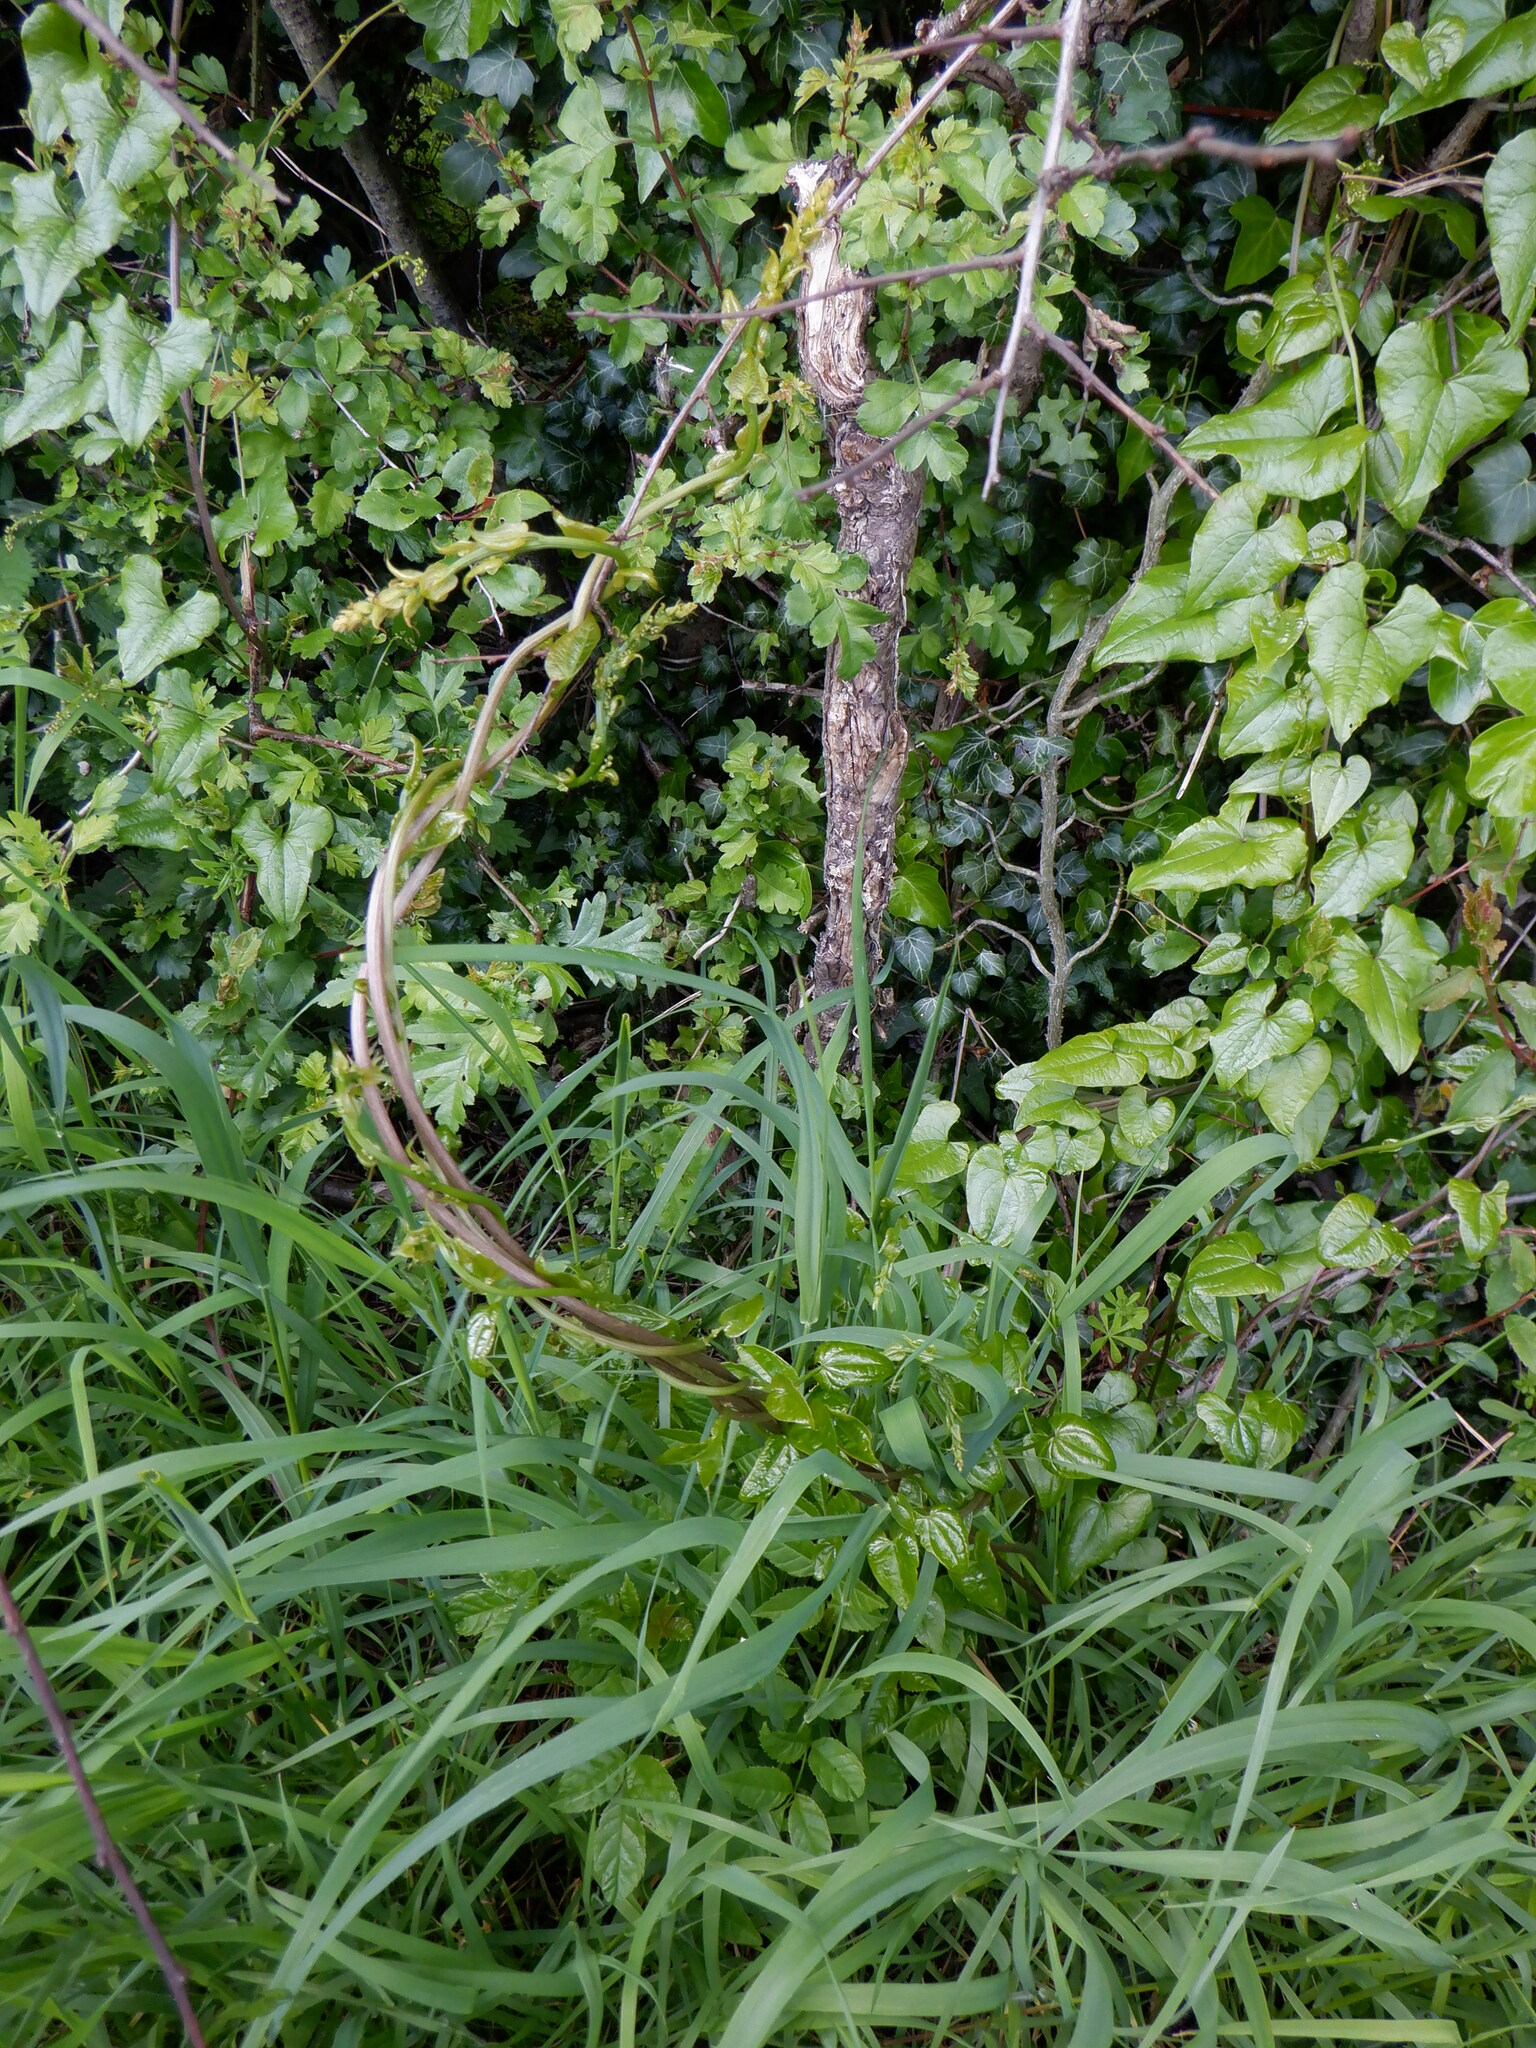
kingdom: Plantae
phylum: Tracheophyta
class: Liliopsida
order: Dioscoreales
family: Dioscoreaceae
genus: Dioscorea
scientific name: Dioscorea communis
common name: Black-bindweed
